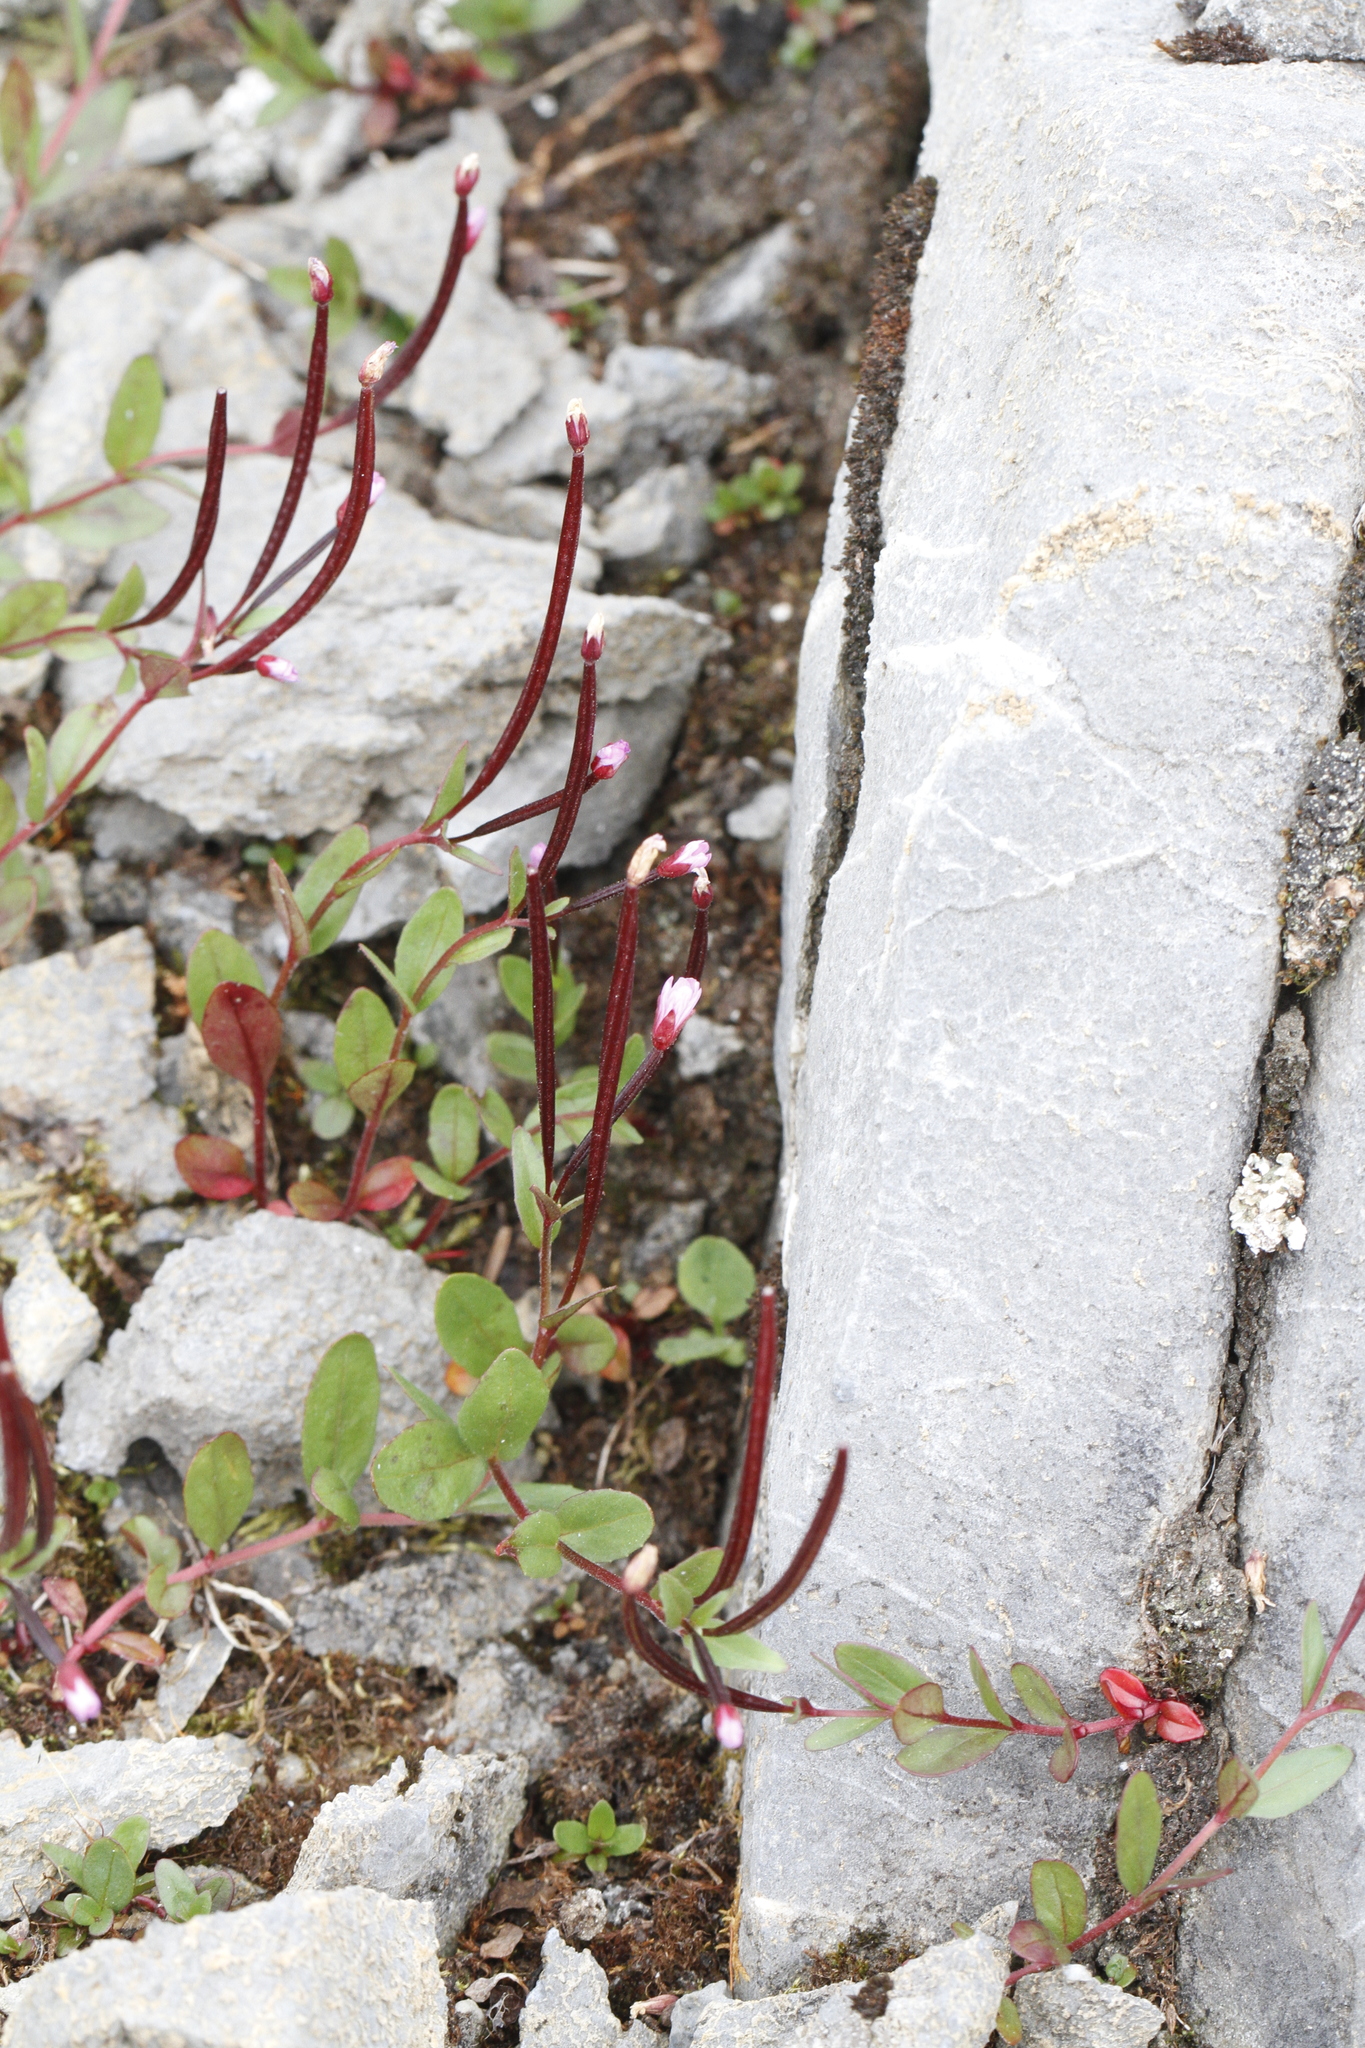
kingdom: Plantae
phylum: Tracheophyta
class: Magnoliopsida
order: Myrtales
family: Onagraceae
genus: Epilobium
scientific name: Epilobium anagallidifolium
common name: Alpine willowherb
